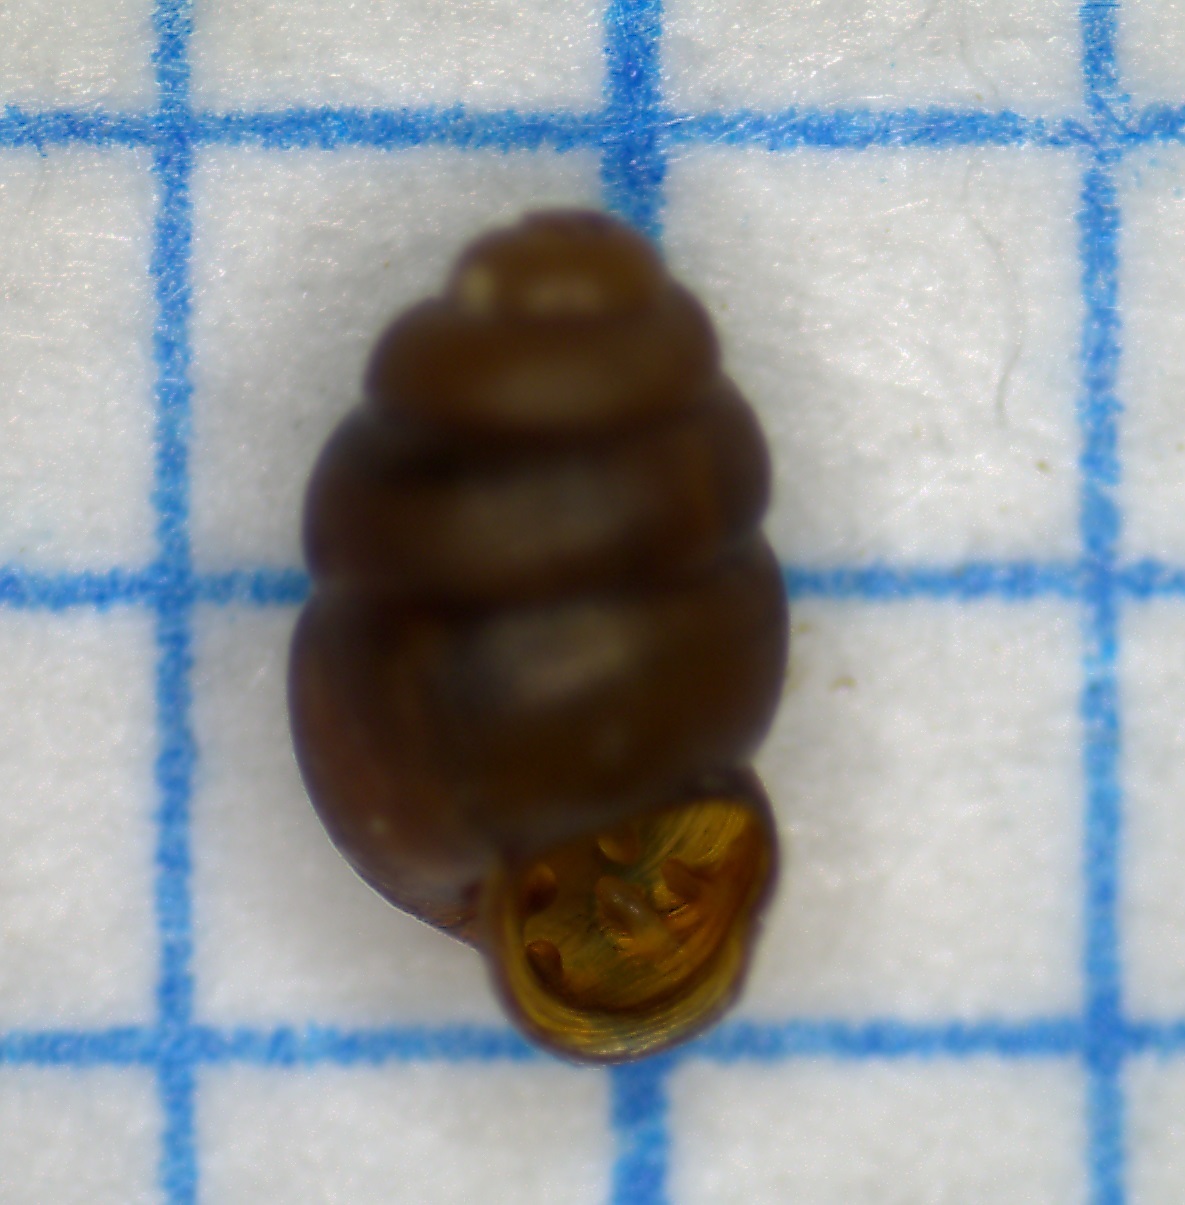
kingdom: Animalia
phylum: Mollusca
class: Gastropoda
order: Stylommatophora
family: Vertiginidae
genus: Vertigo
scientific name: Vertigo pygmaea
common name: Common whorl snail
